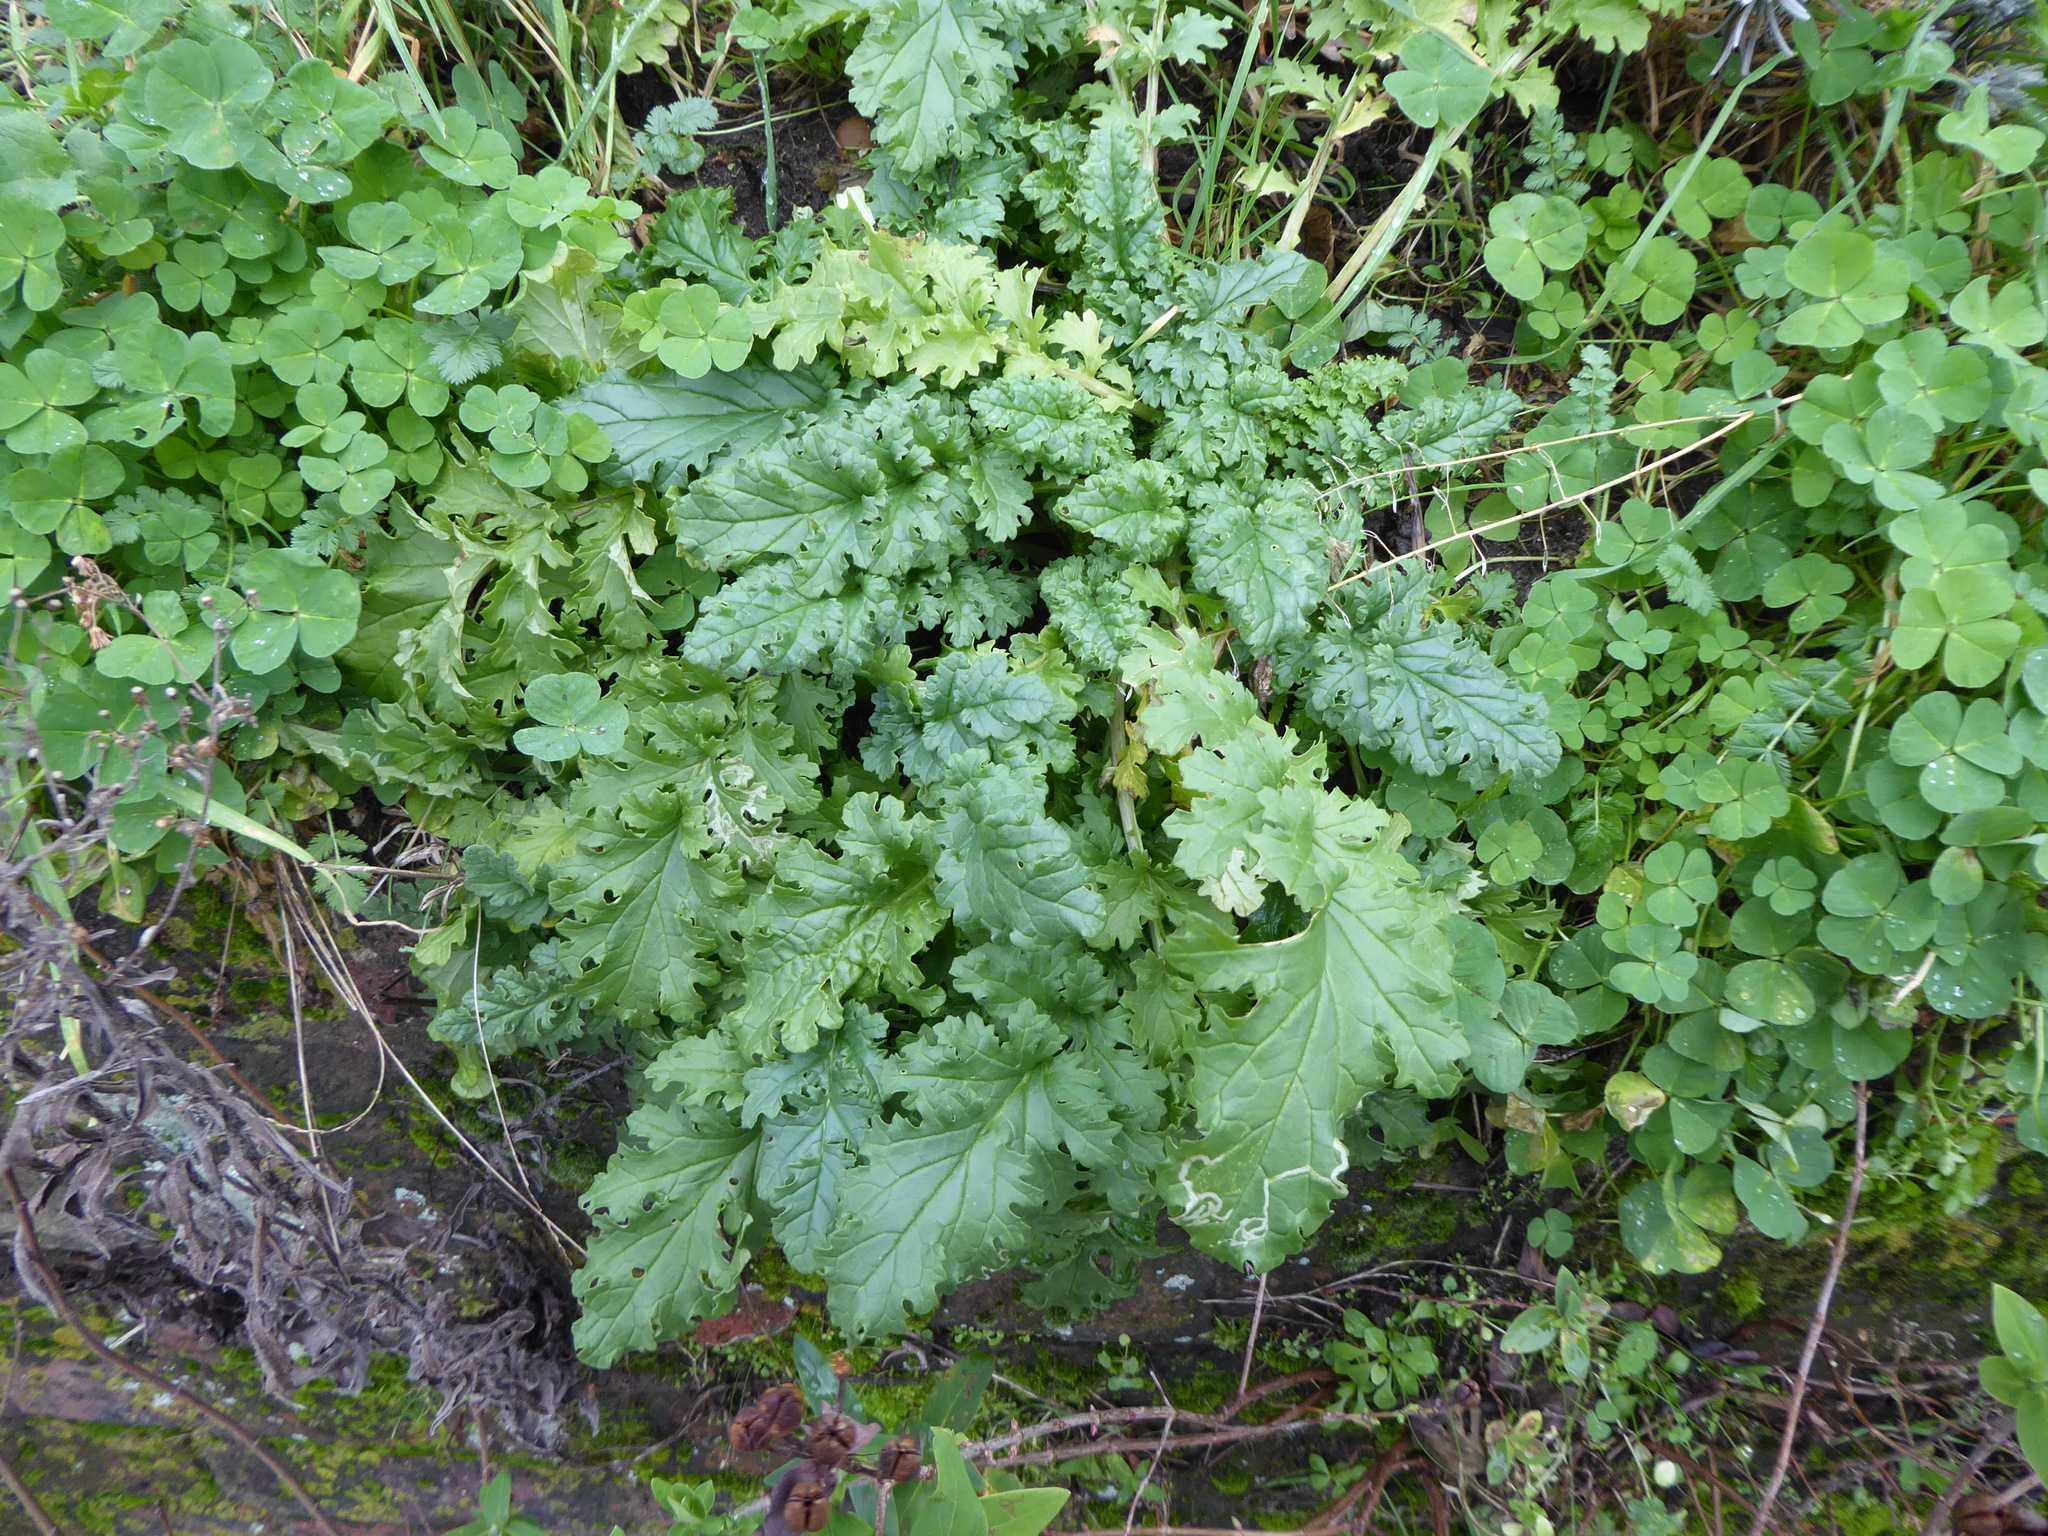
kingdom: Plantae
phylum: Tracheophyta
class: Magnoliopsida
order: Asterales
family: Asteraceae
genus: Jacobaea
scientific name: Jacobaea vulgaris
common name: Stinking willie
